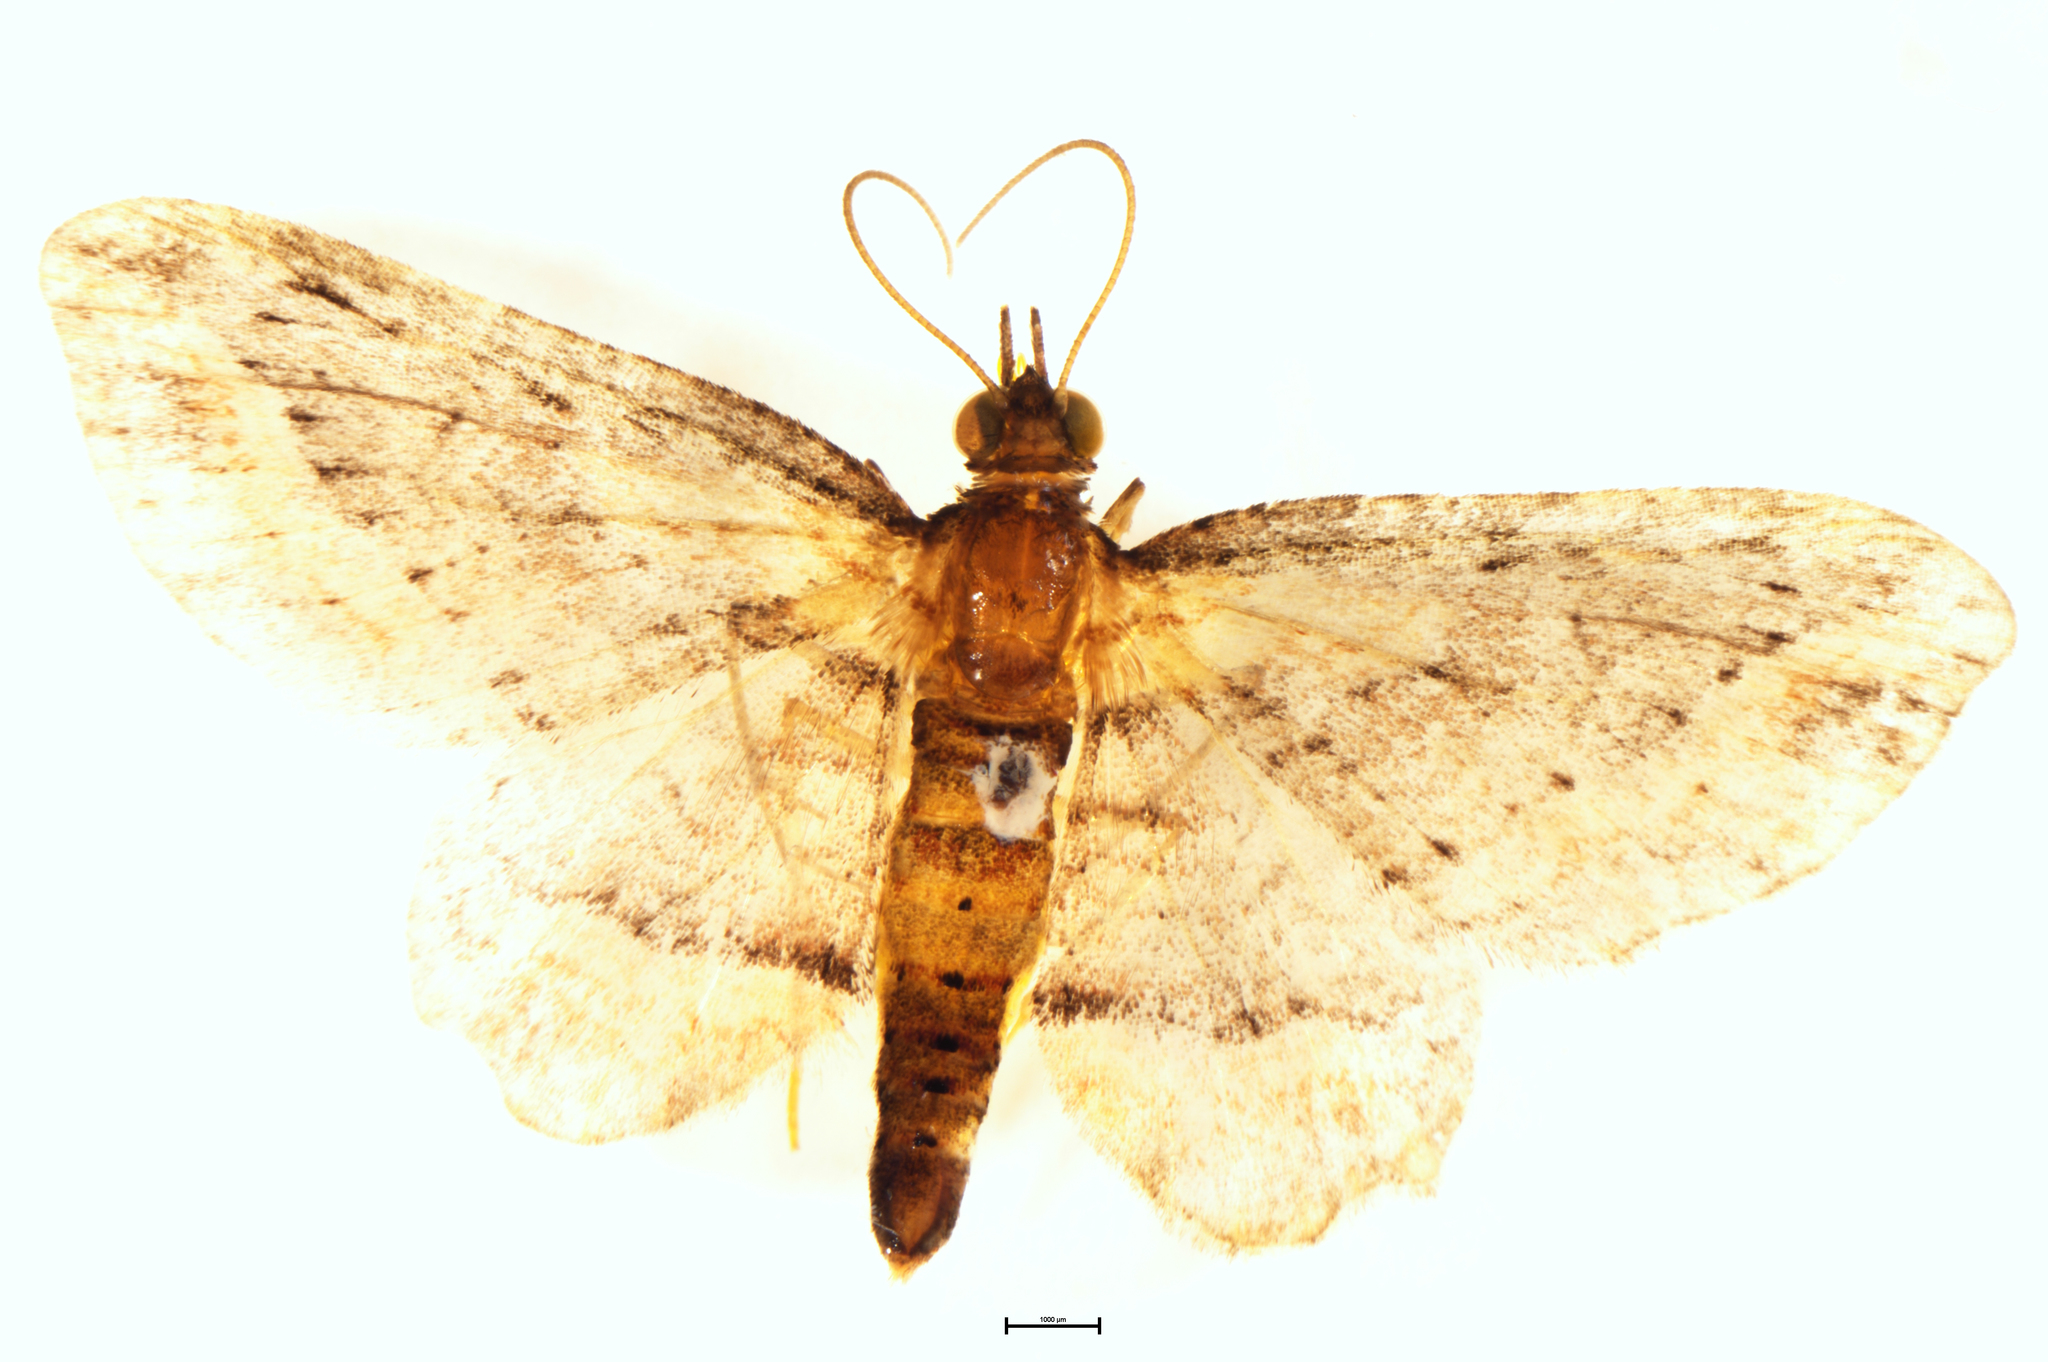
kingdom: Animalia
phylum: Arthropoda
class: Insecta
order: Lepidoptera
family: Geometridae
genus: Chloroclystis
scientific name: Chloroclystis filata
